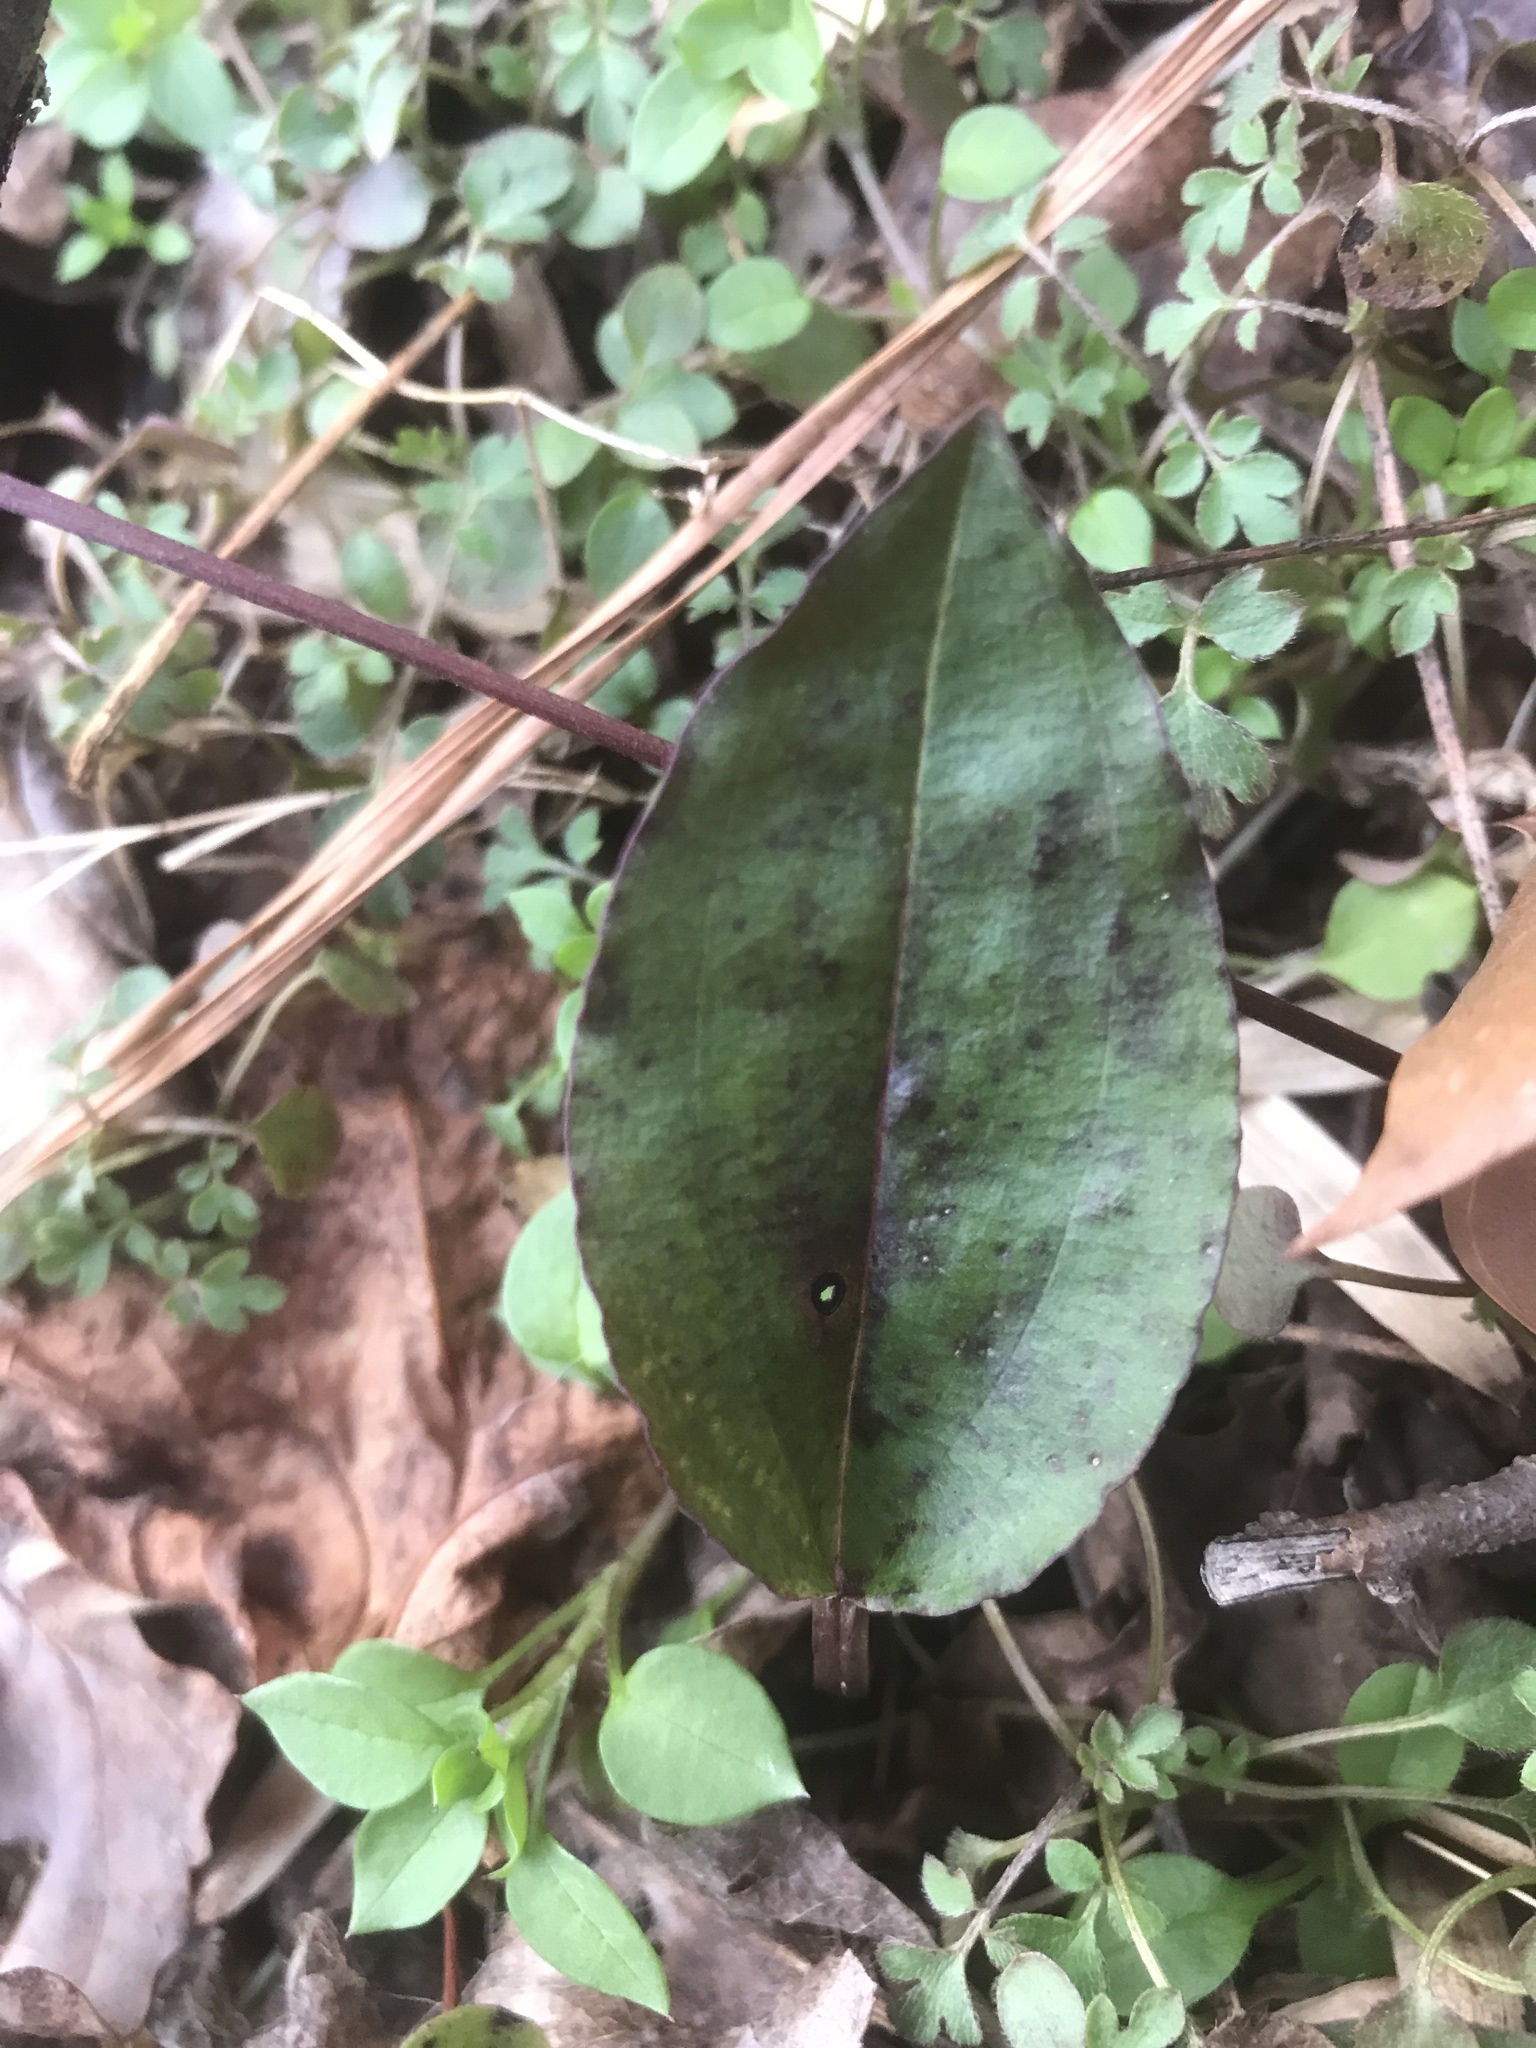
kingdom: Plantae
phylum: Tracheophyta
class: Liliopsida
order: Asparagales
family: Orchidaceae
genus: Tipularia
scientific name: Tipularia discolor
